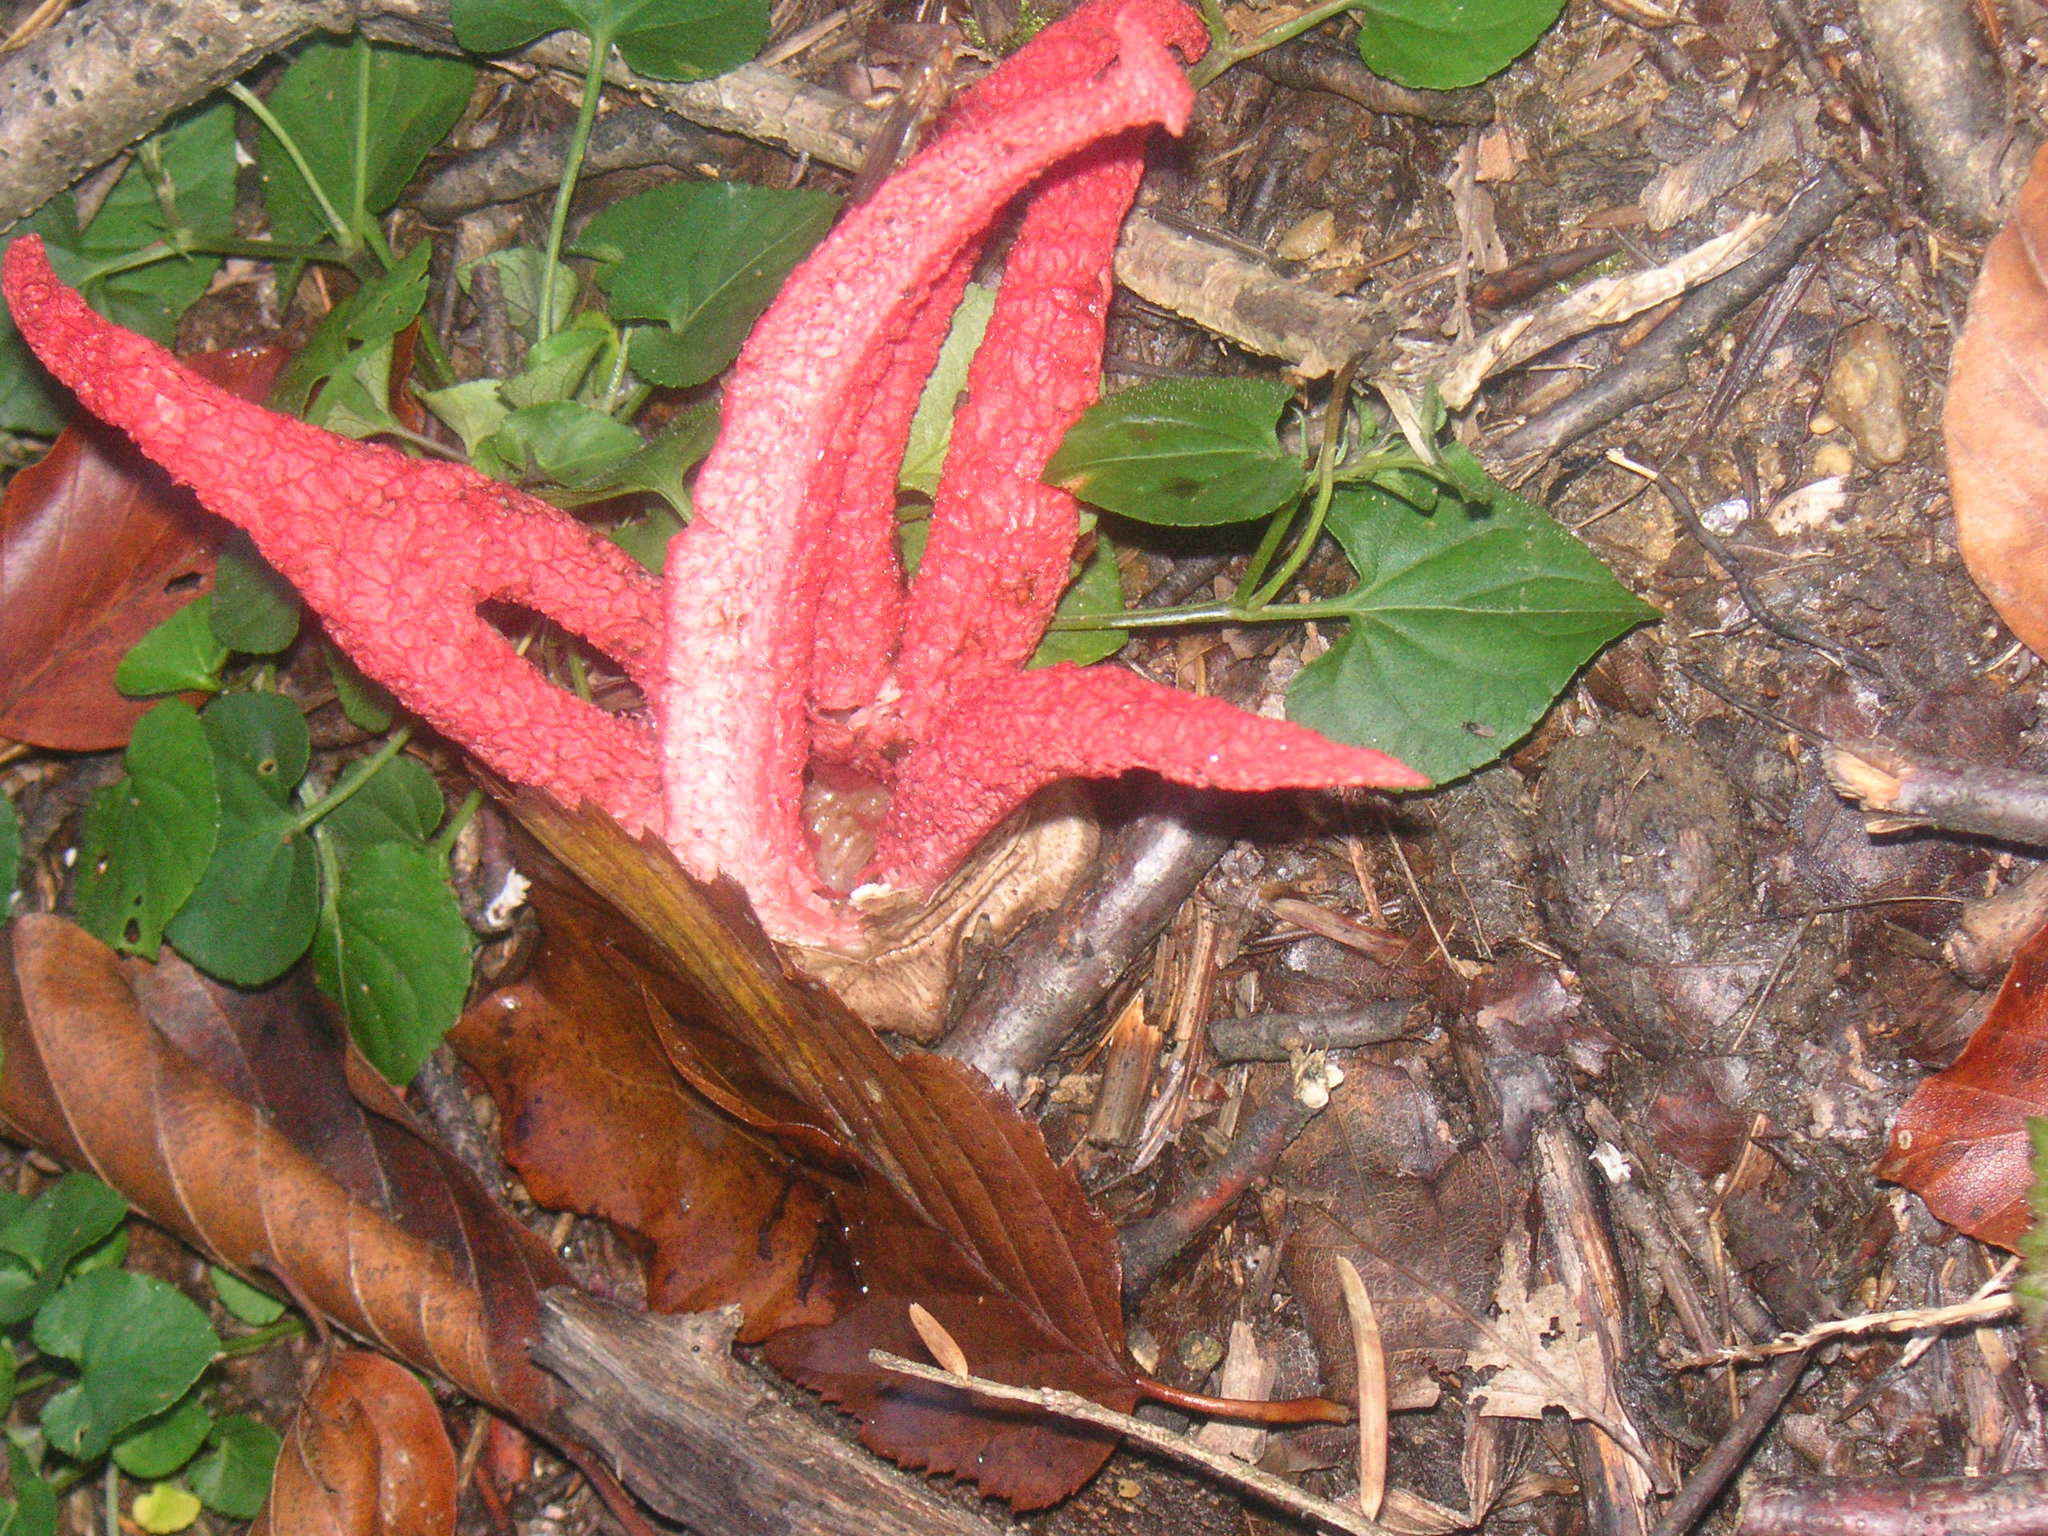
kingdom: Fungi
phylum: Basidiomycota
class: Agaricomycetes
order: Phallales
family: Phallaceae
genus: Clathrus
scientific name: Clathrus archeri
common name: Devil's fingers
